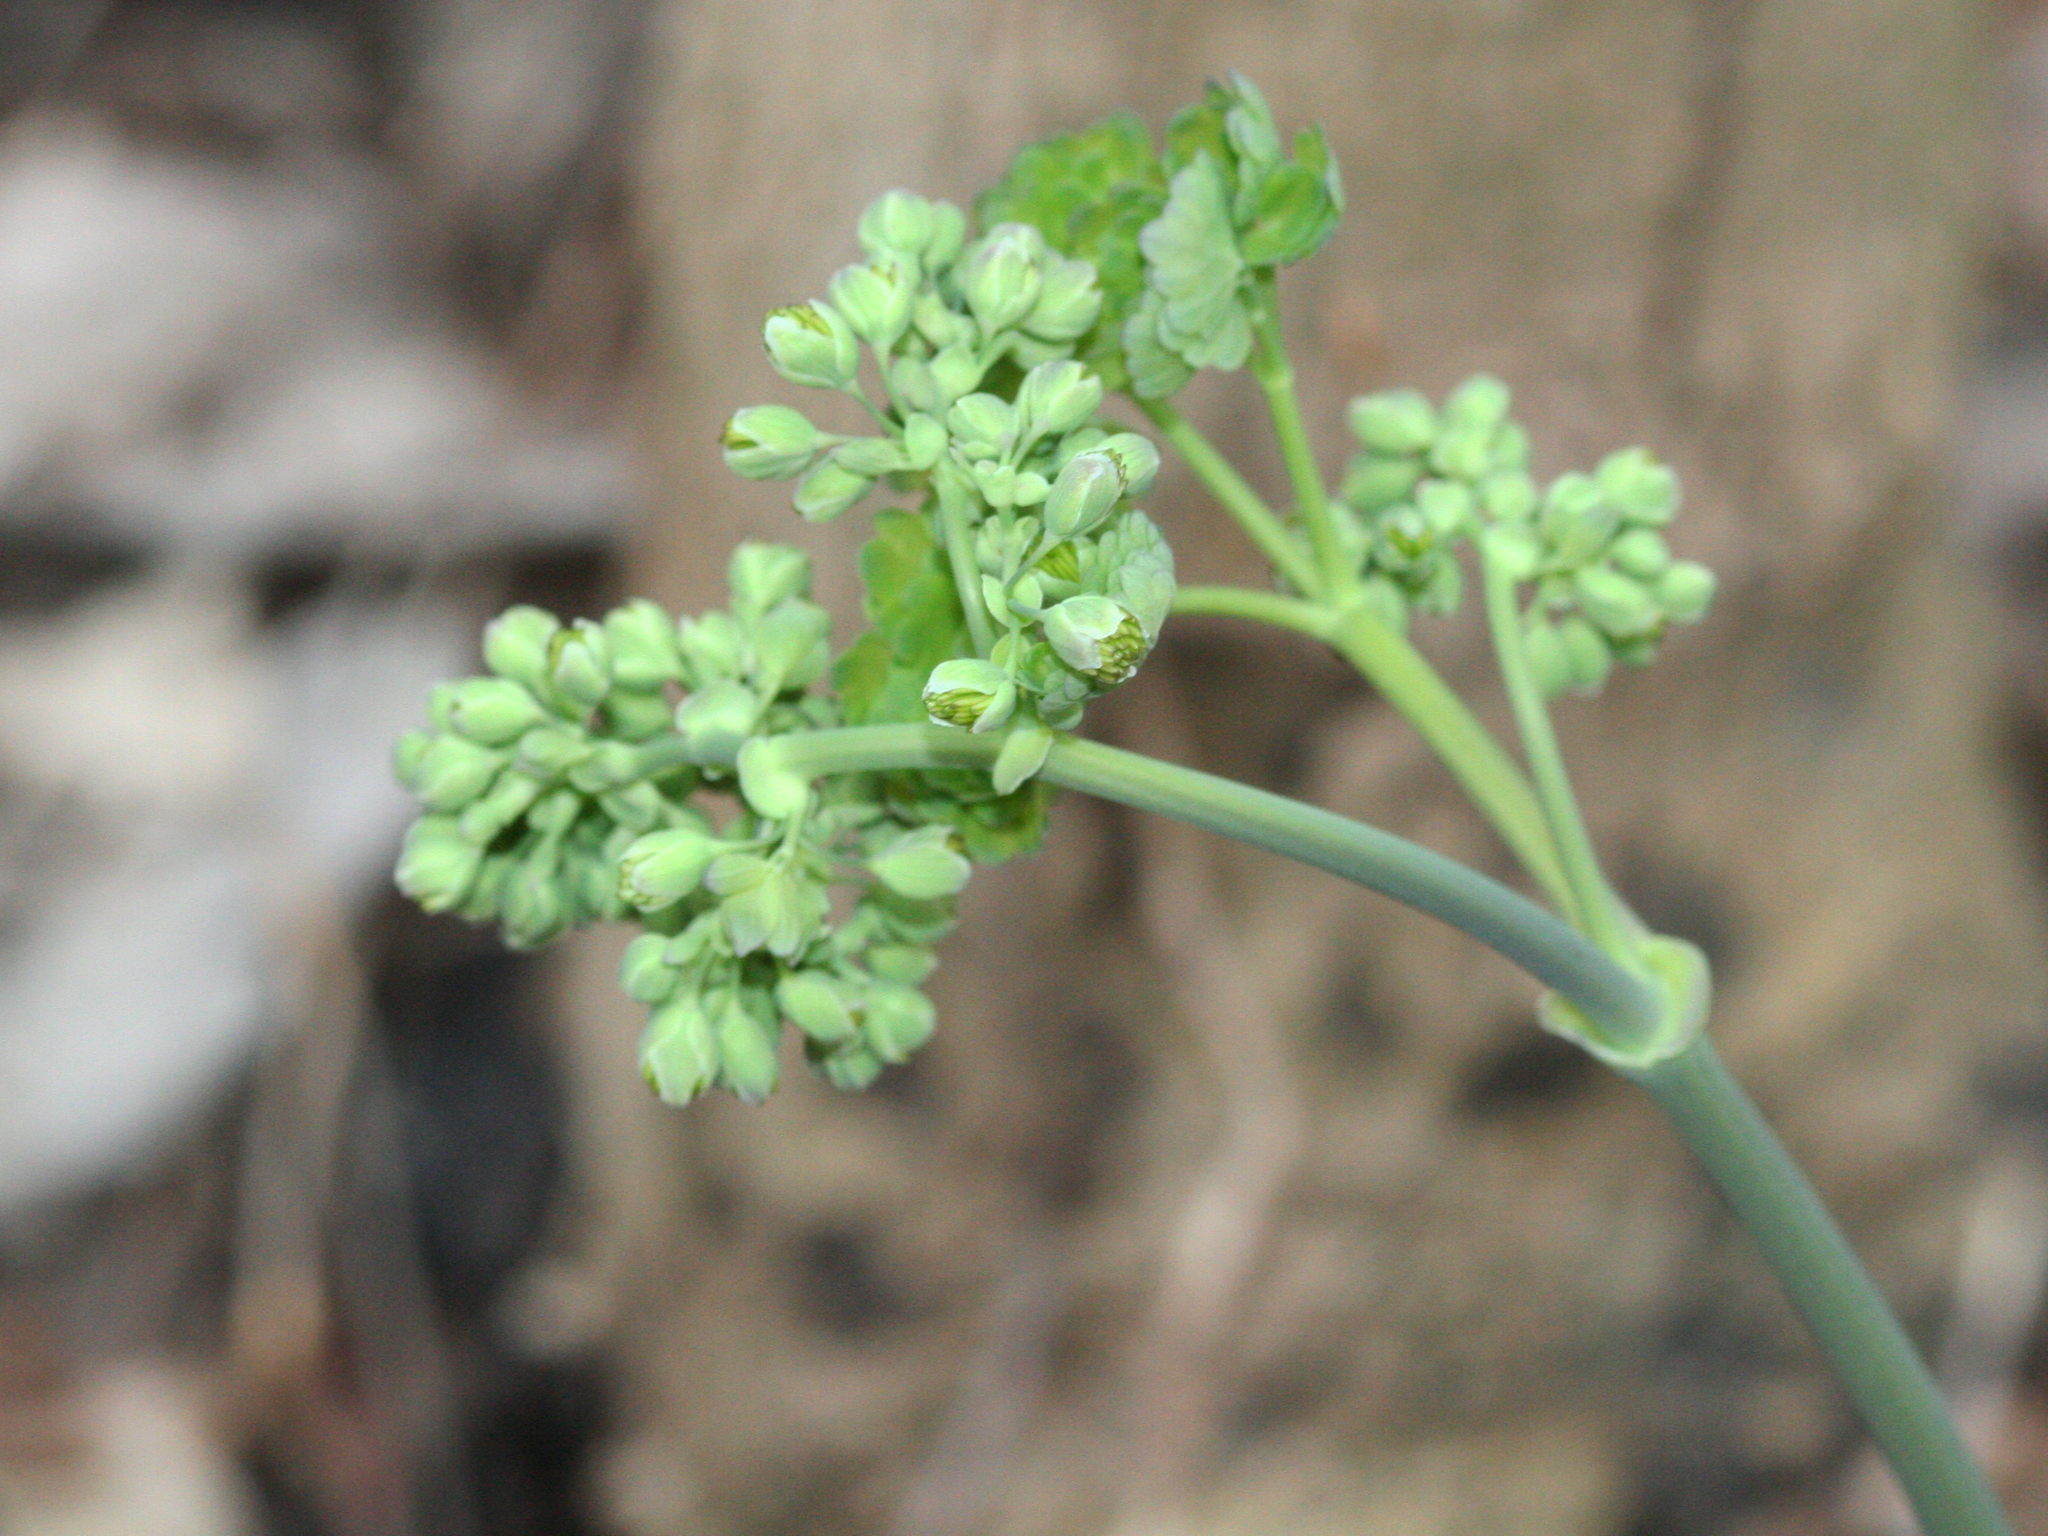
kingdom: Plantae
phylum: Tracheophyta
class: Magnoliopsida
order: Ranunculales
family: Ranunculaceae
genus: Thalictrum
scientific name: Thalictrum dioicum
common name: Early meadow-rue
